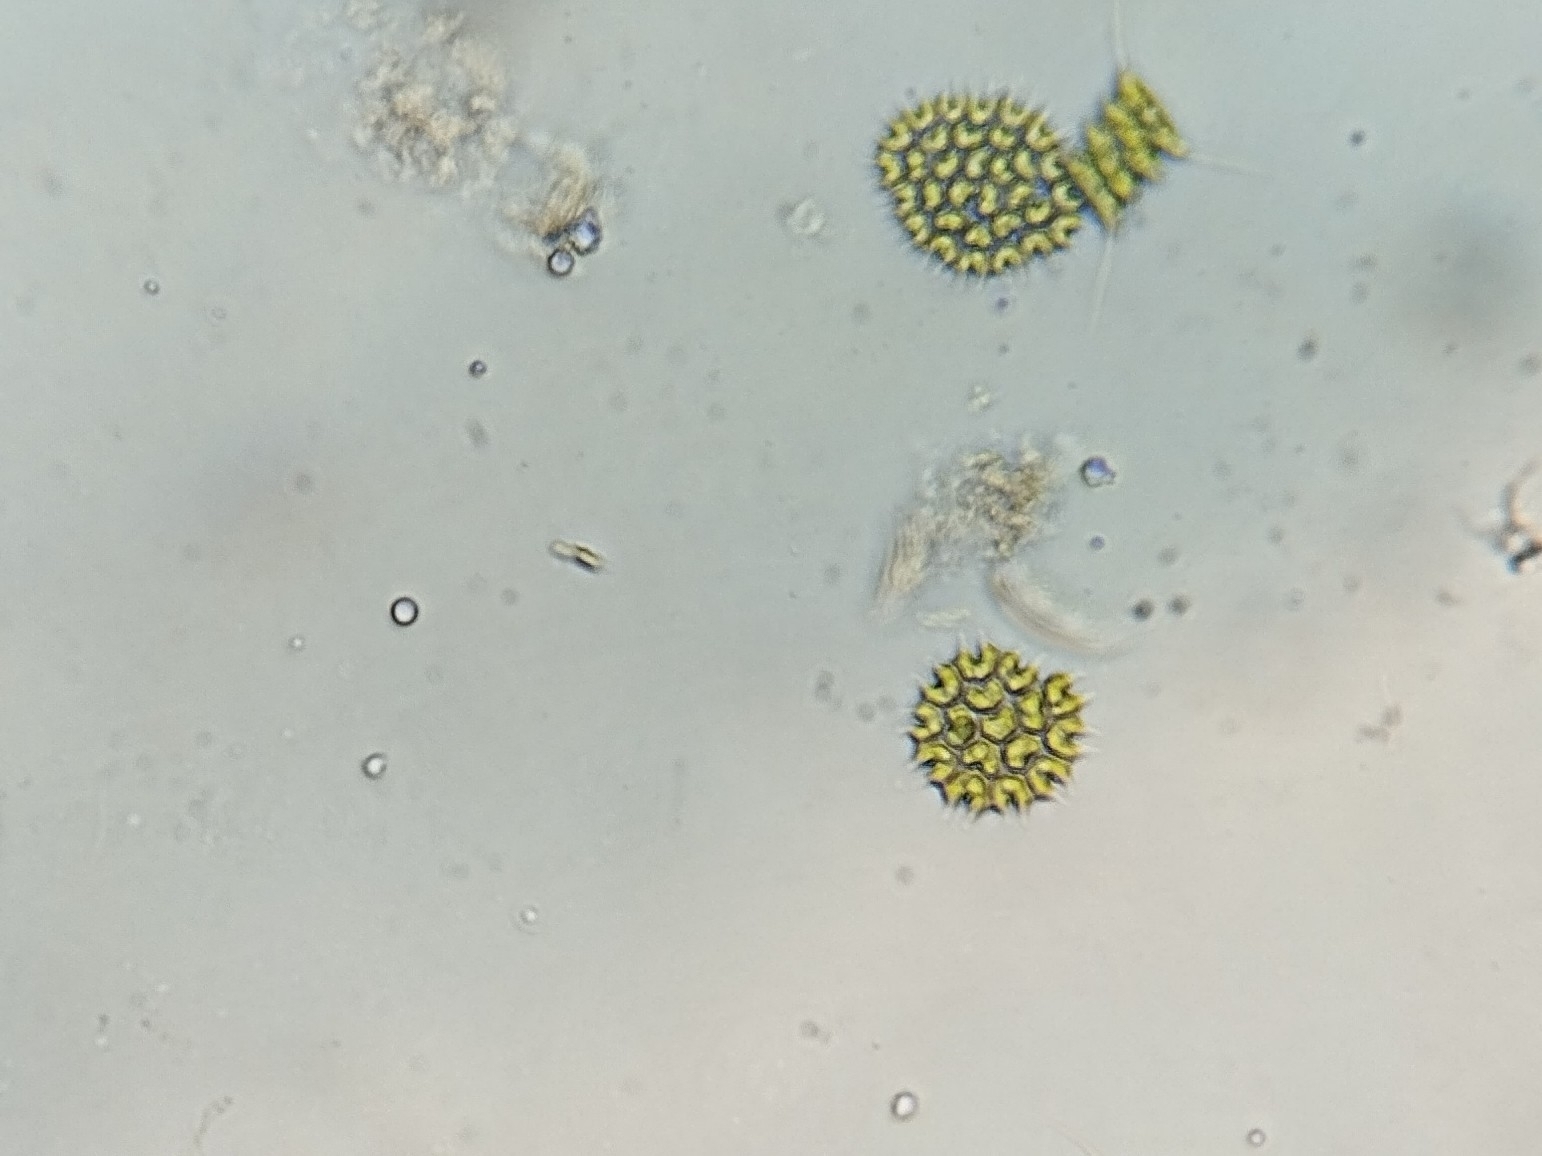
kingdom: Plantae
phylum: Chlorophyta
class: Chlorophyceae
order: Sphaeropleales
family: Hydrodictyaceae
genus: Pseudopediastrum
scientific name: Pseudopediastrum boryanum
